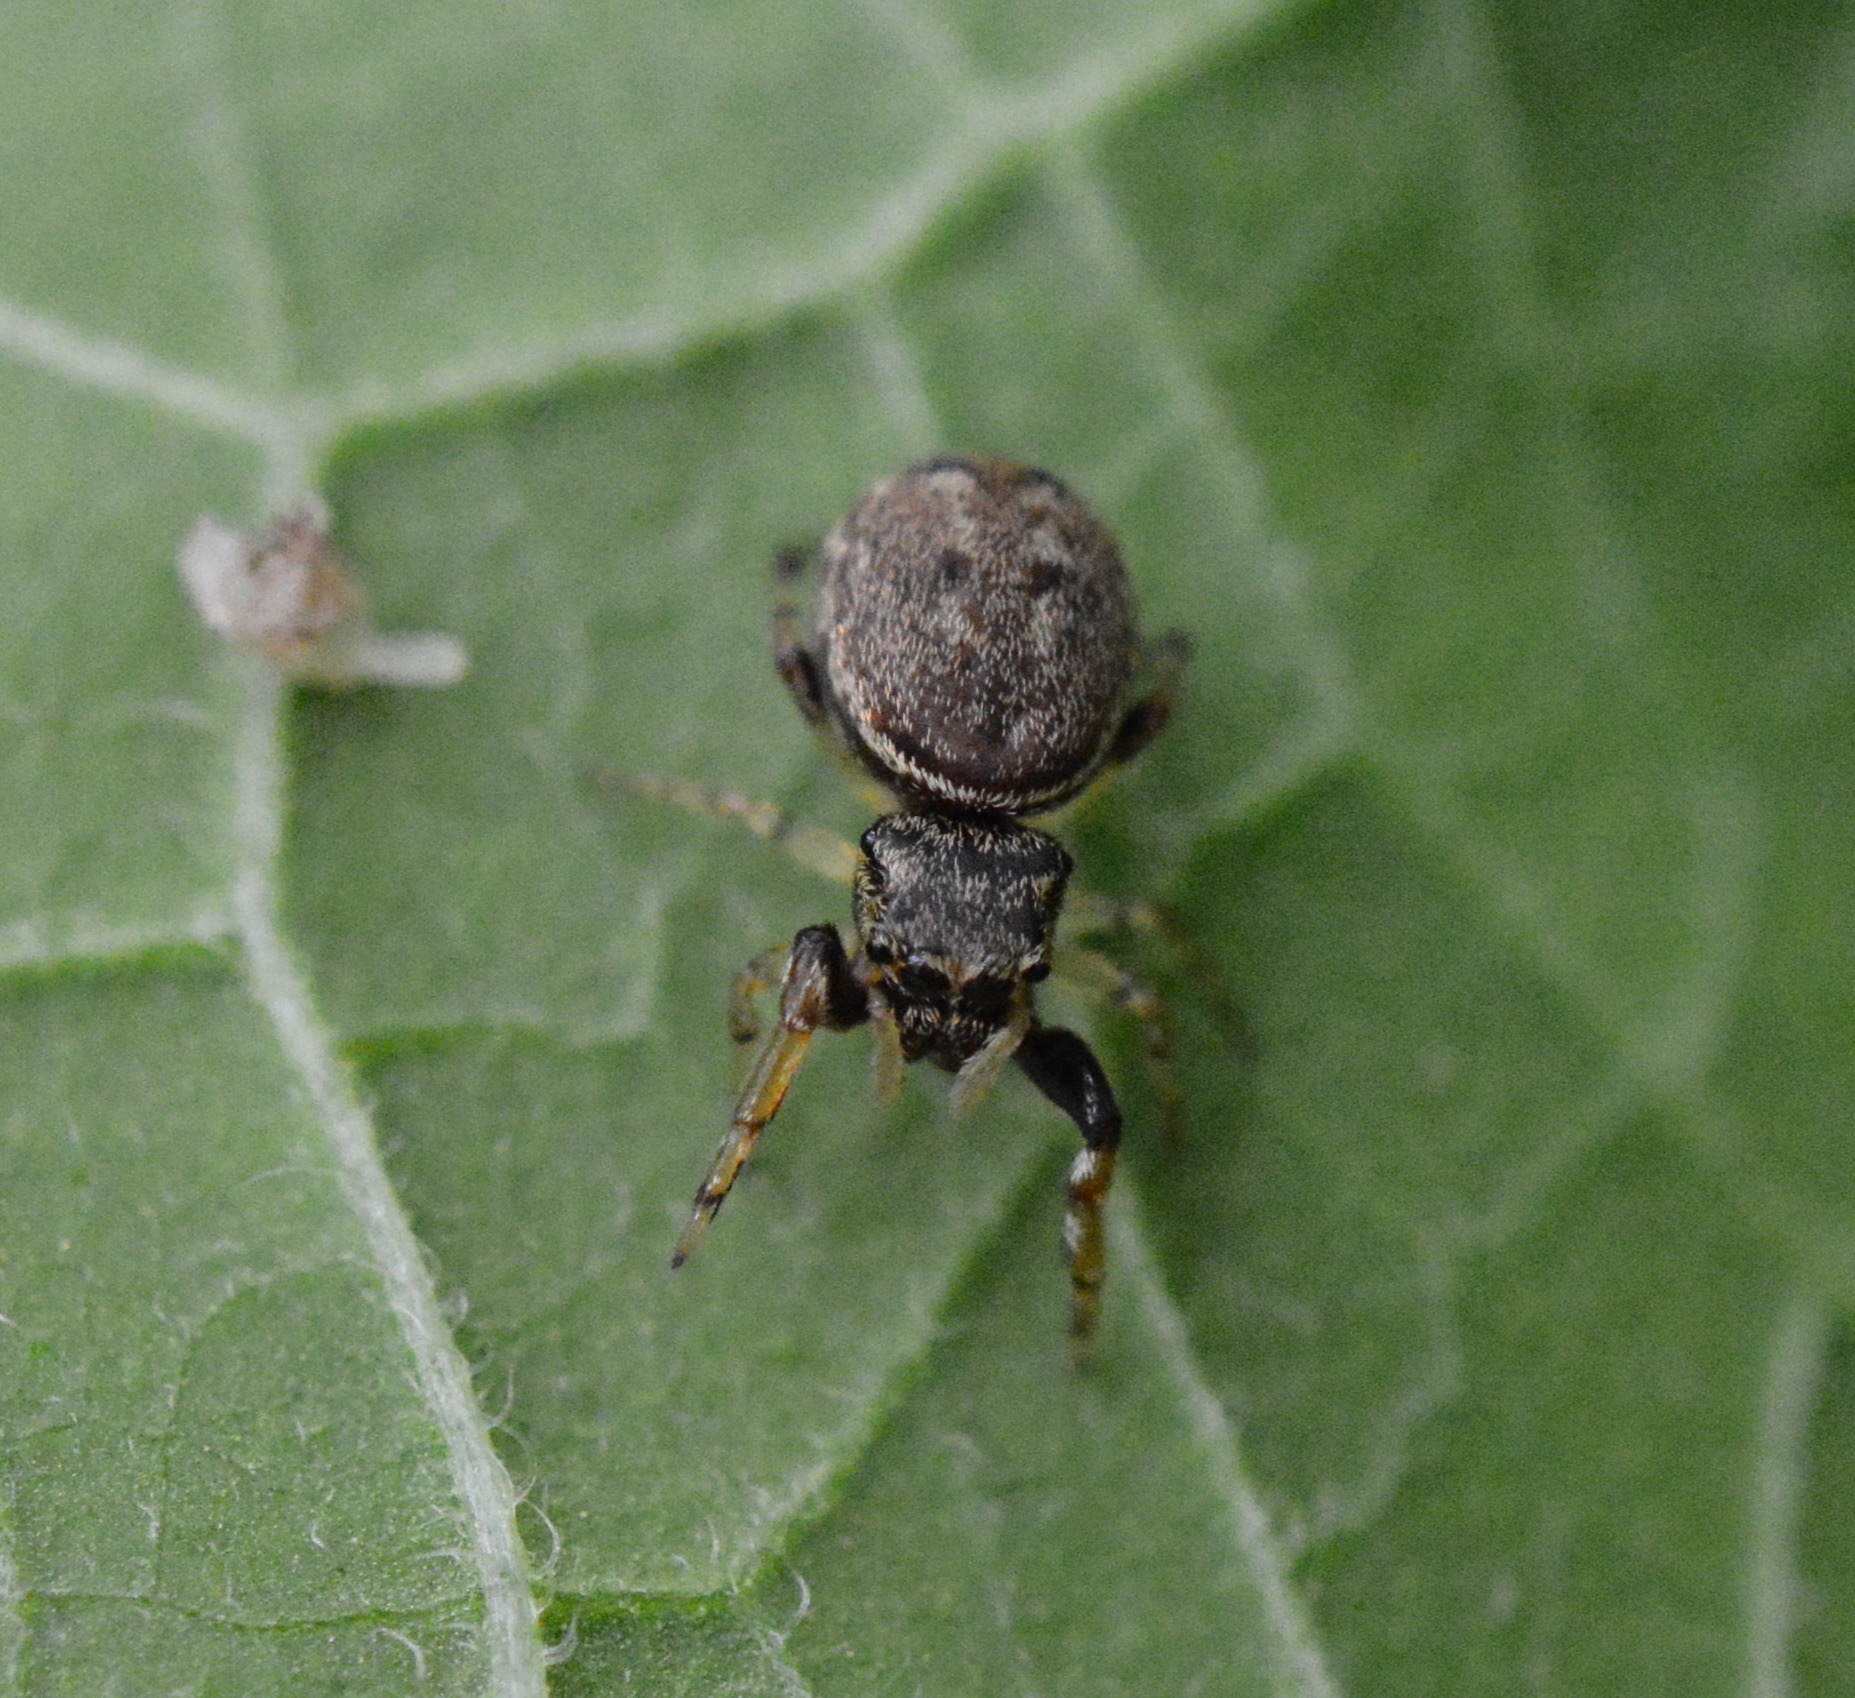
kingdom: Animalia
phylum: Arthropoda
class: Arachnida
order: Araneae
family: Salticidae
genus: Zygoballus
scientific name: Zygoballus rufipes
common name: Jumping spiders
